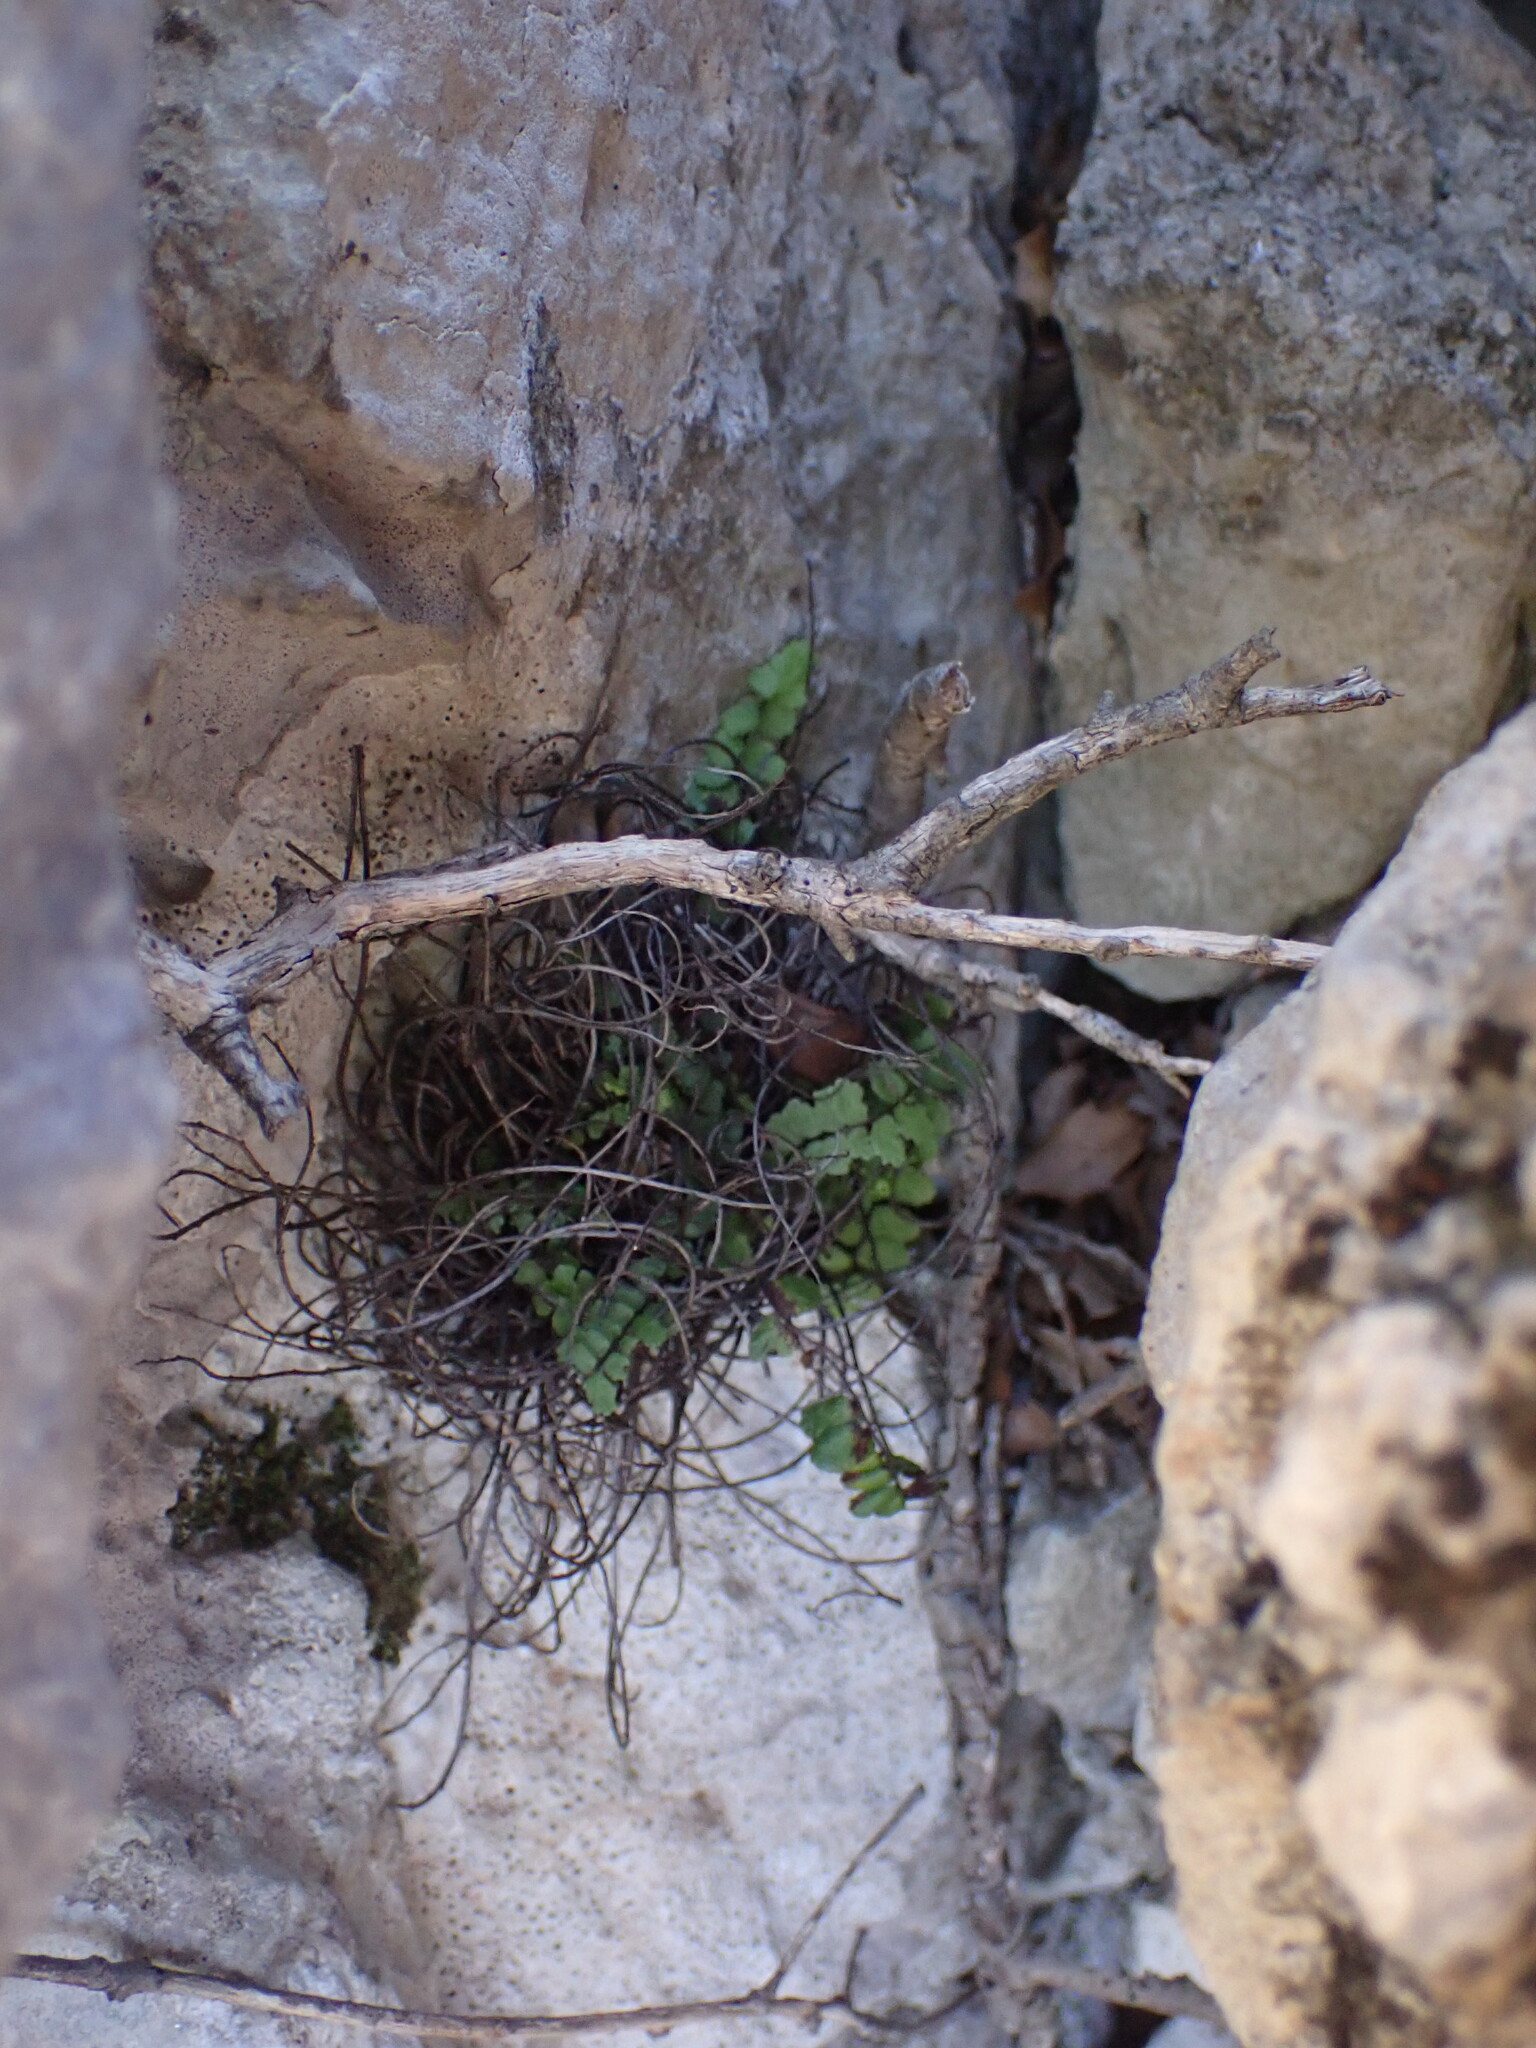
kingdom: Plantae
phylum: Tracheophyta
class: Polypodiopsida
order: Polypodiales
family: Aspleniaceae
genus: Asplenium
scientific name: Asplenium trichomanes
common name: Maidenhair spleenwort
